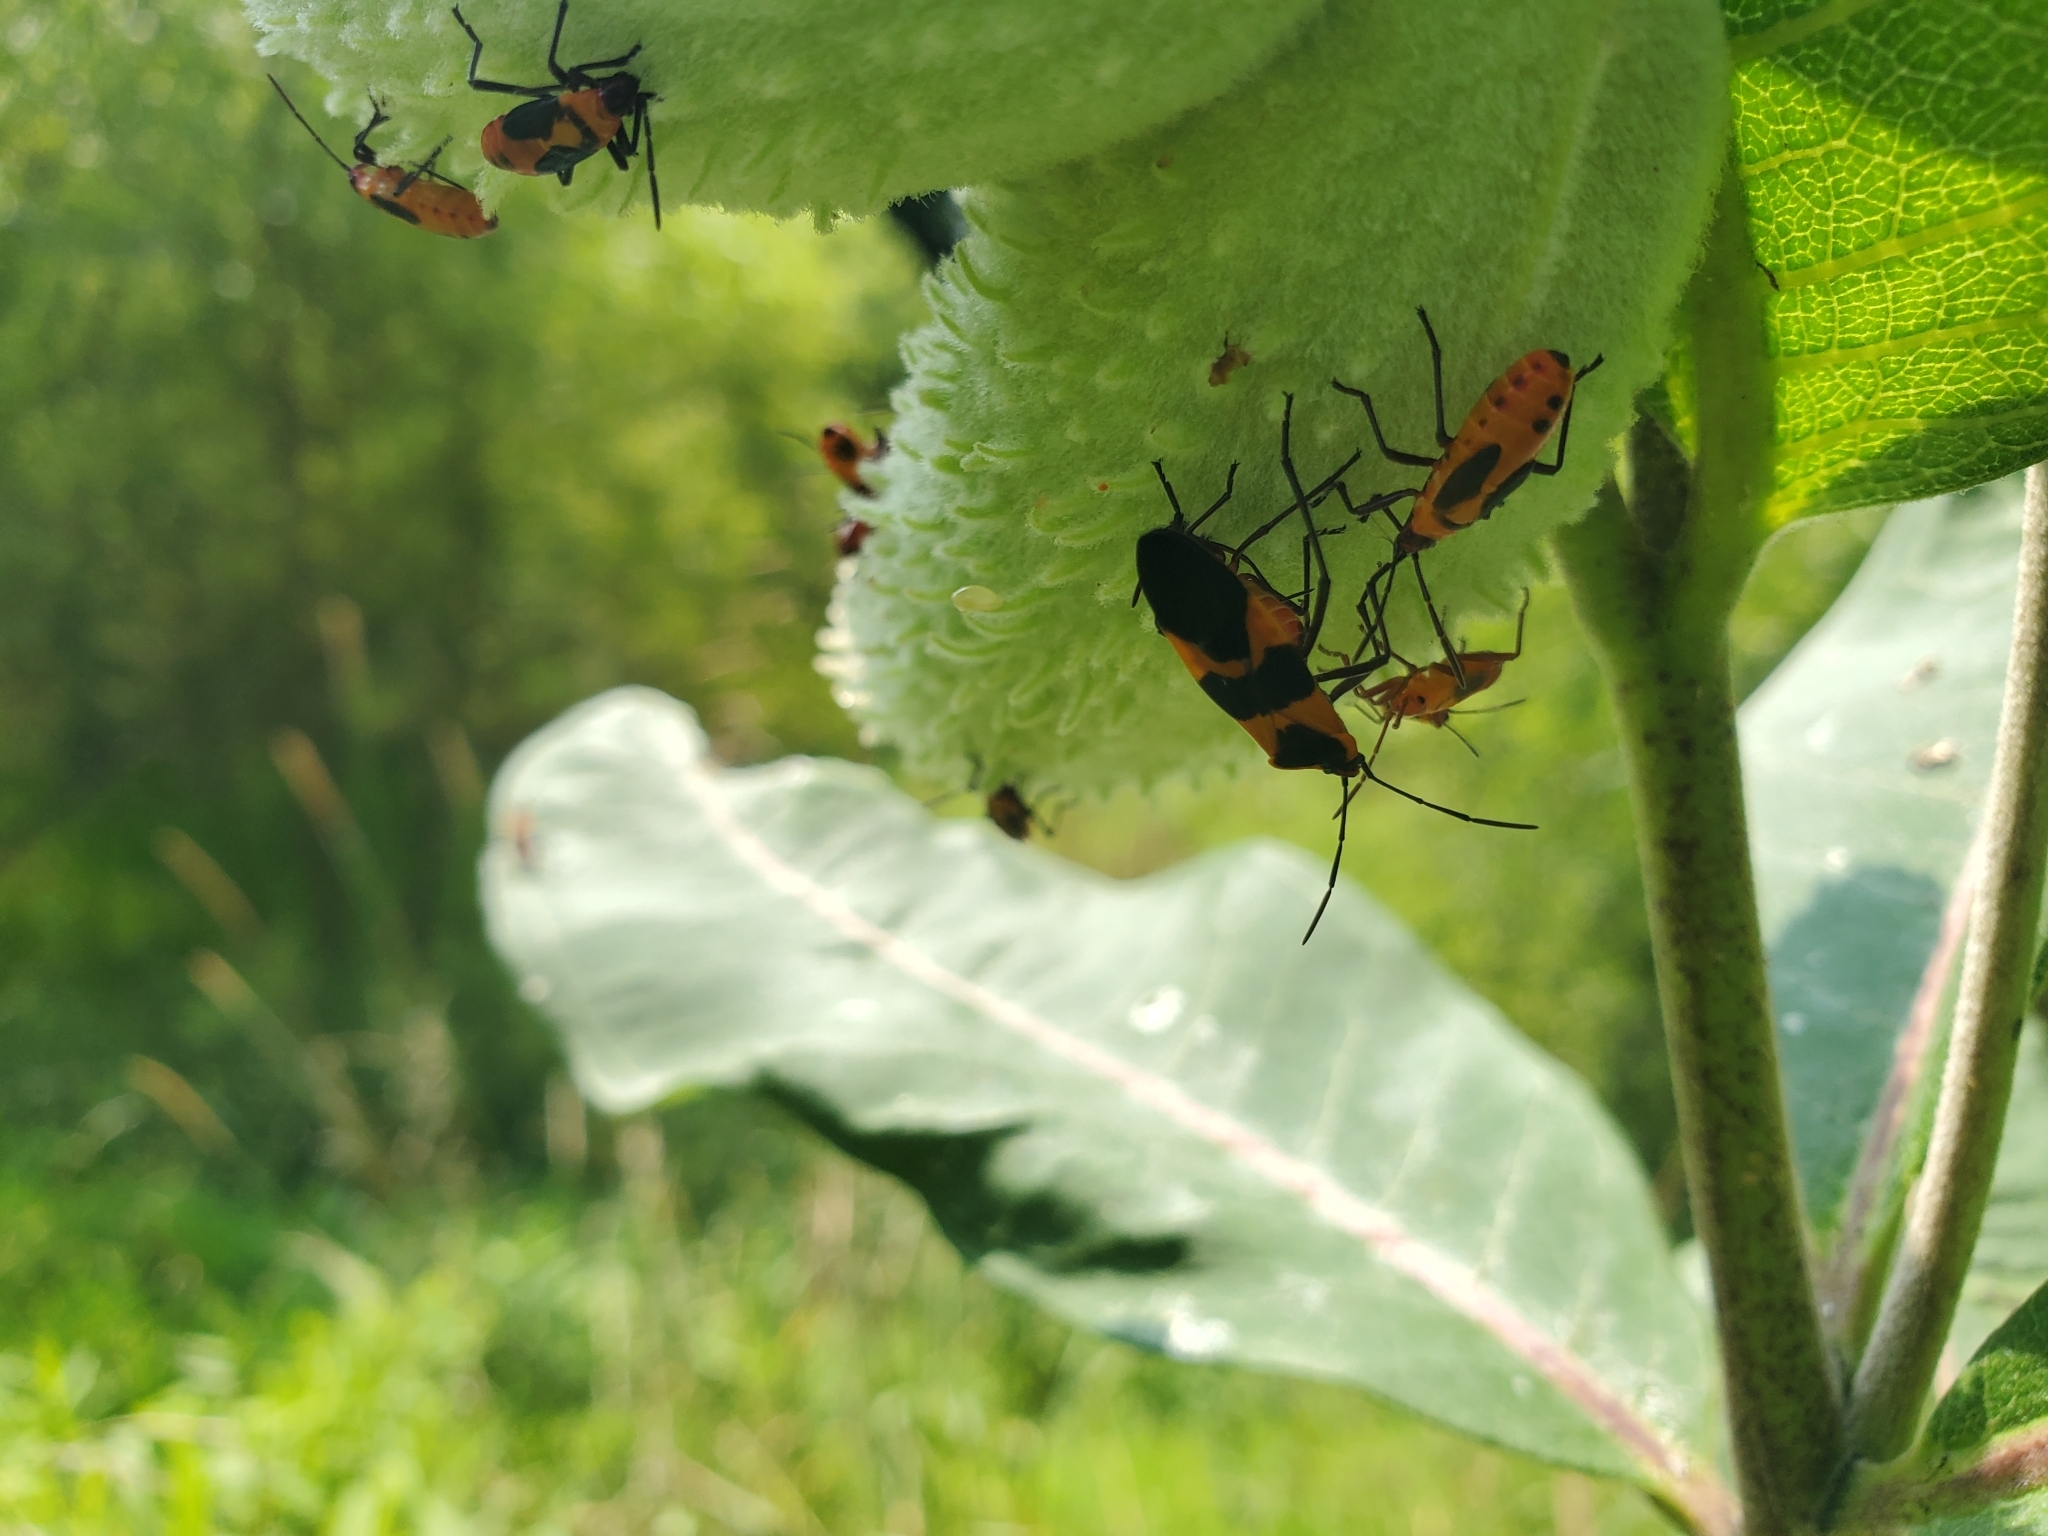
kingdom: Animalia
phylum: Arthropoda
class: Insecta
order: Hemiptera
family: Lygaeidae
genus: Oncopeltus
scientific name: Oncopeltus fasciatus
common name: Large milkweed bug
